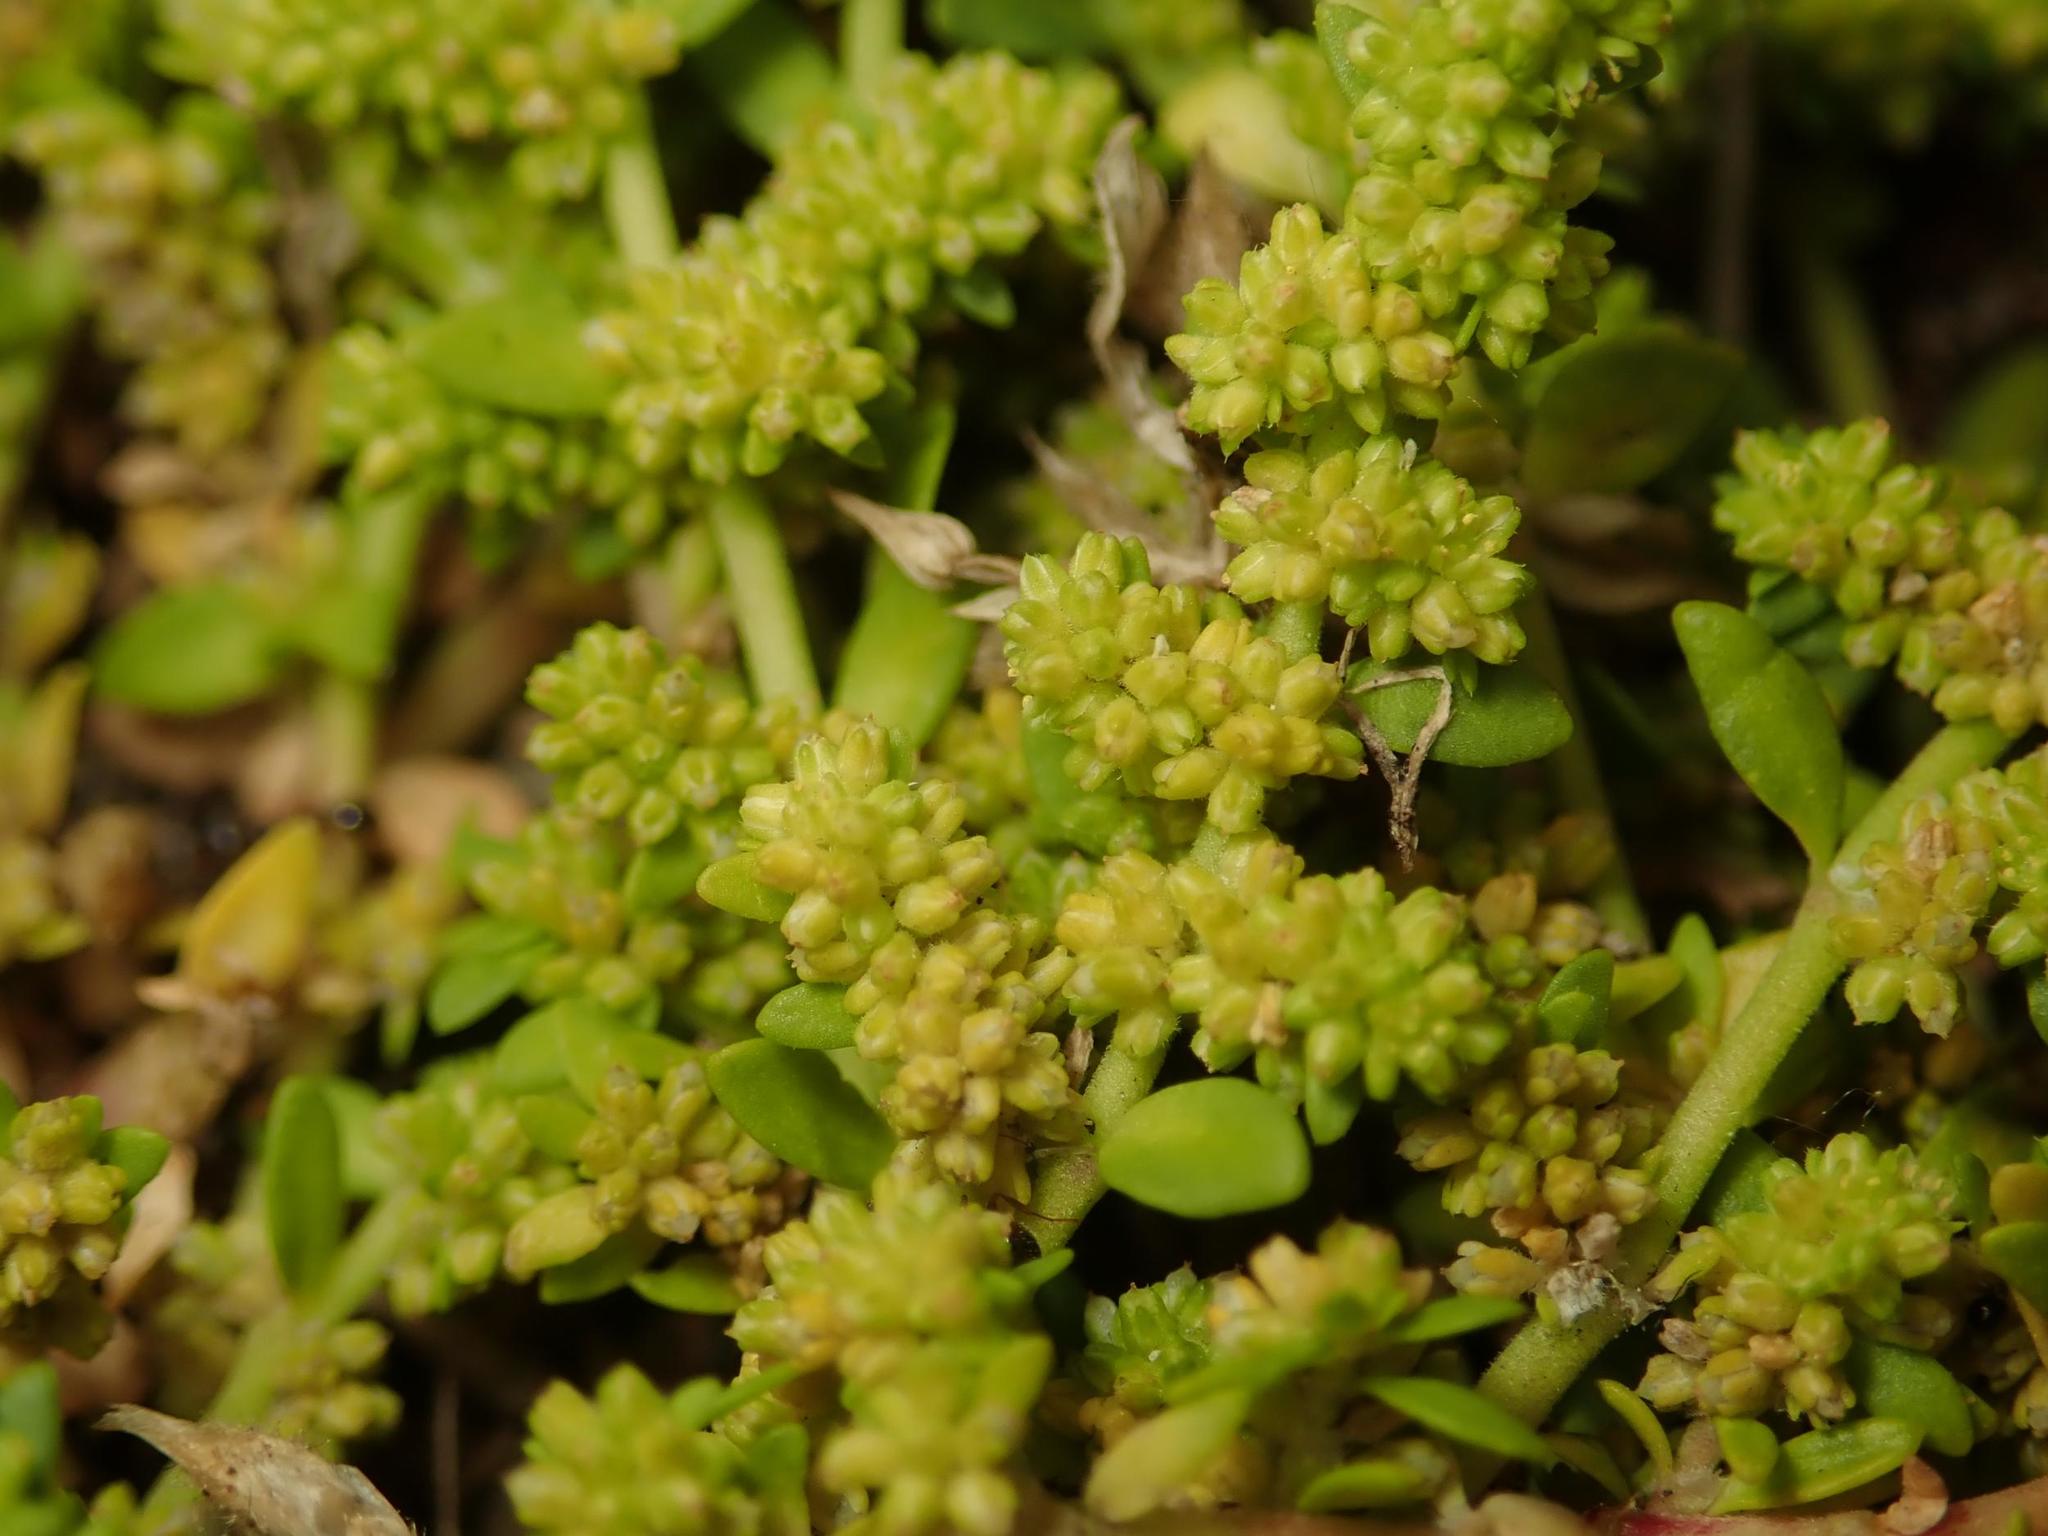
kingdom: Plantae
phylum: Tracheophyta
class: Magnoliopsida
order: Caryophyllales
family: Caryophyllaceae
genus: Herniaria
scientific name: Herniaria glabra
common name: Smooth rupturewort
